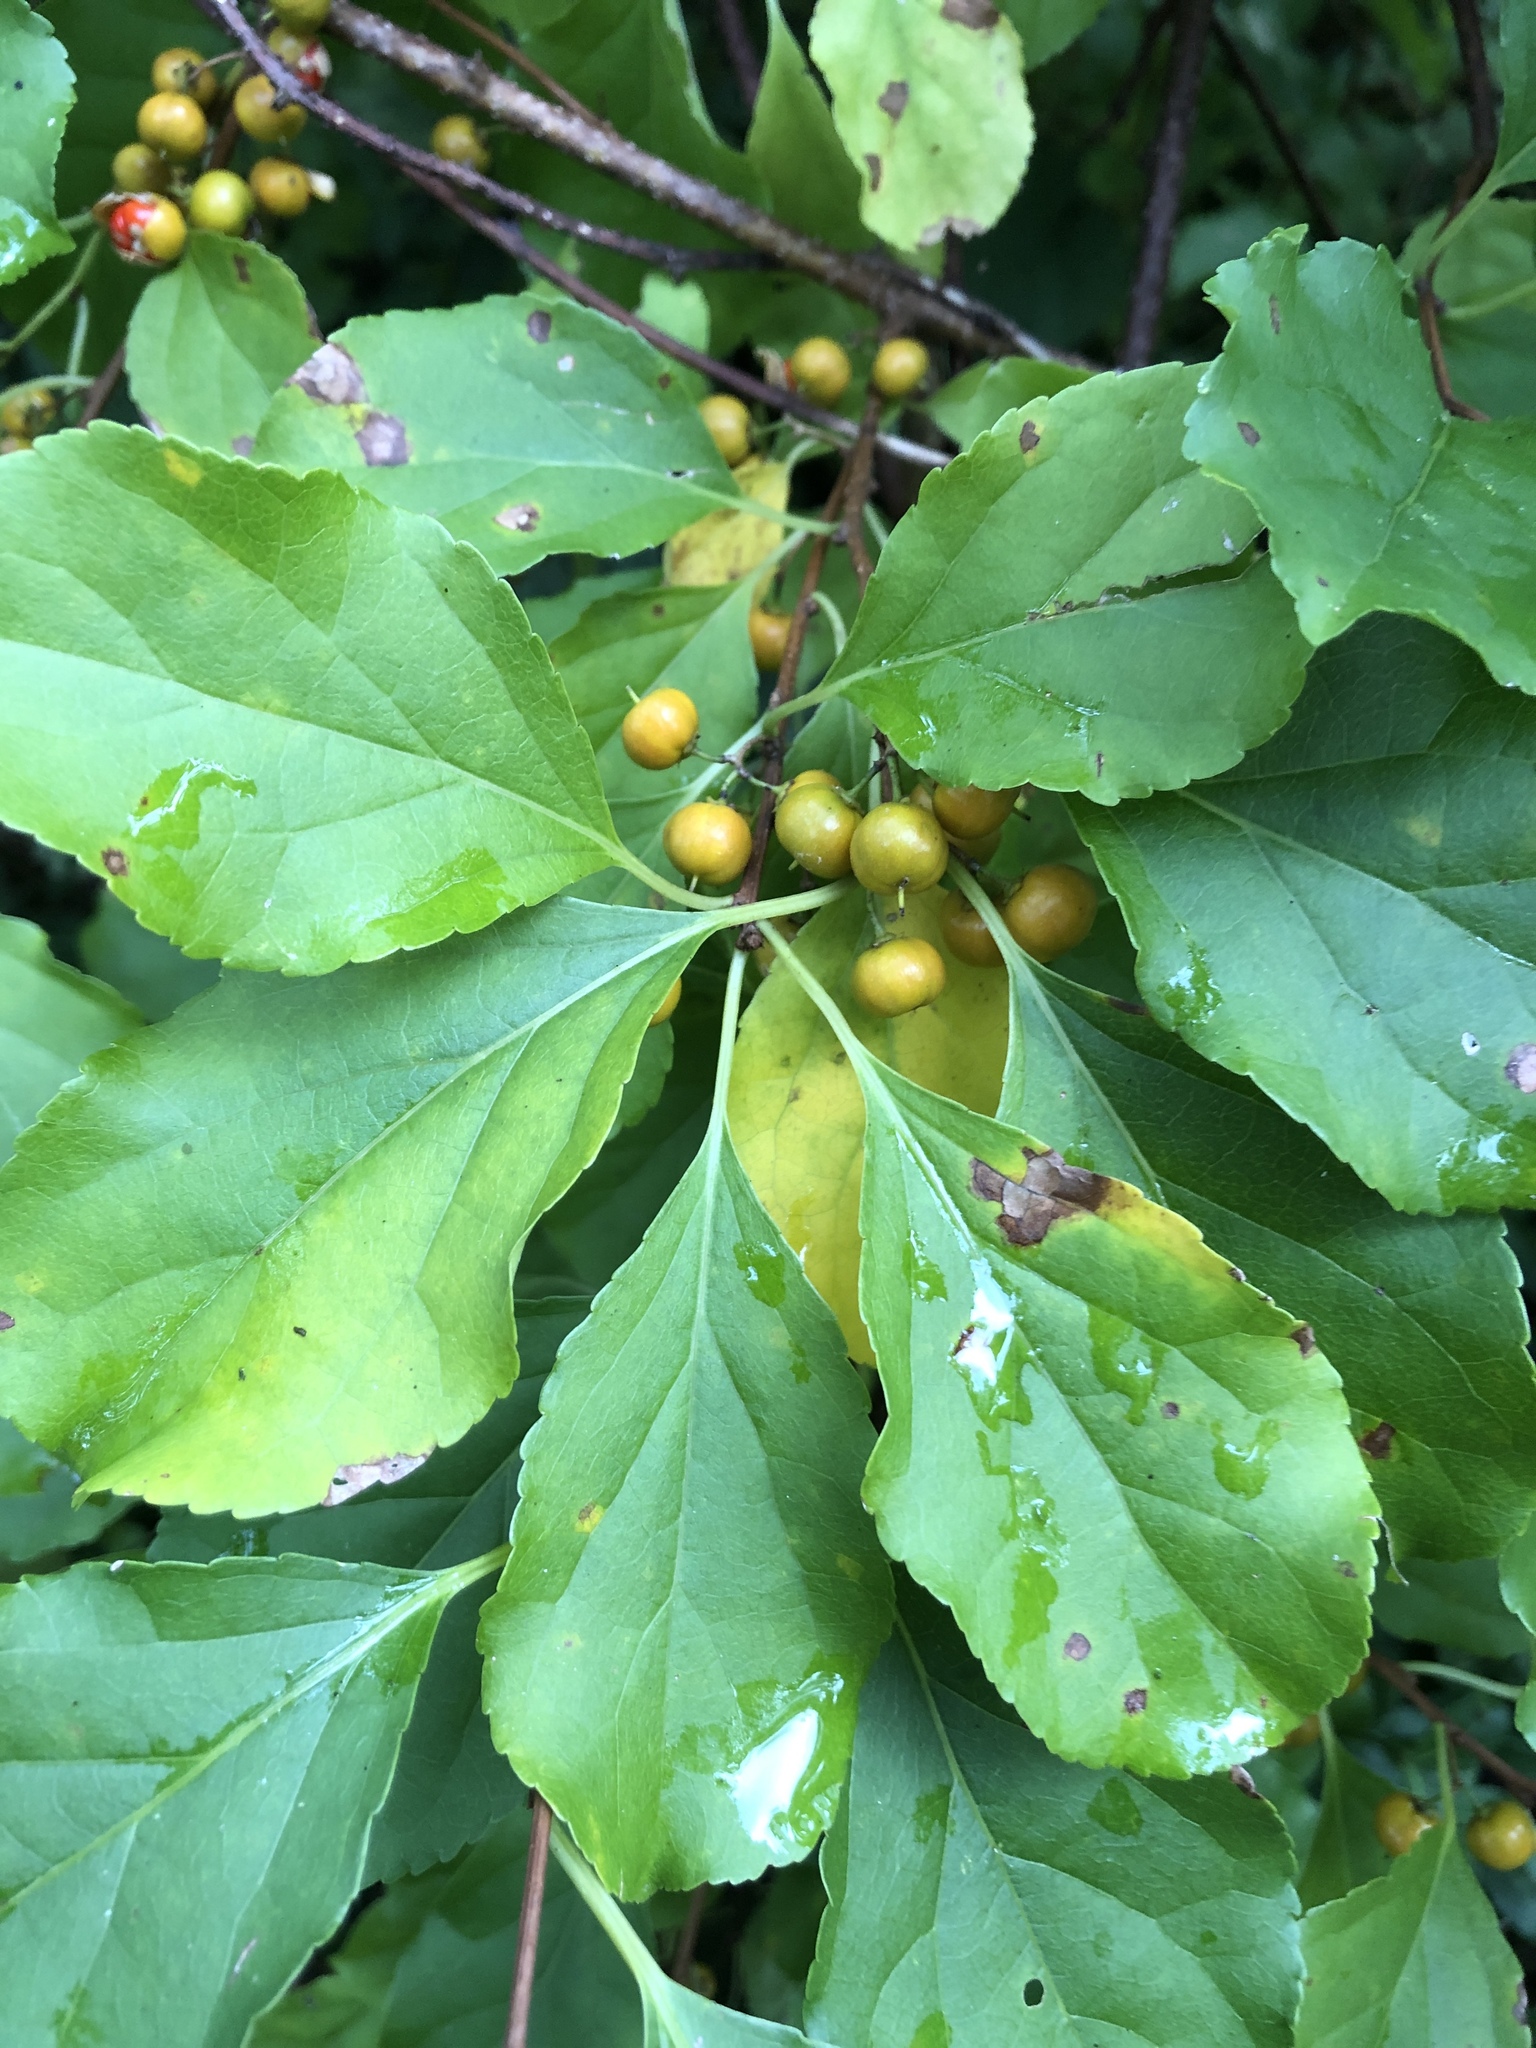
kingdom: Plantae
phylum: Tracheophyta
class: Magnoliopsida
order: Celastrales
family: Celastraceae
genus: Celastrus
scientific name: Celastrus orbiculatus
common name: Oriental bittersweet
